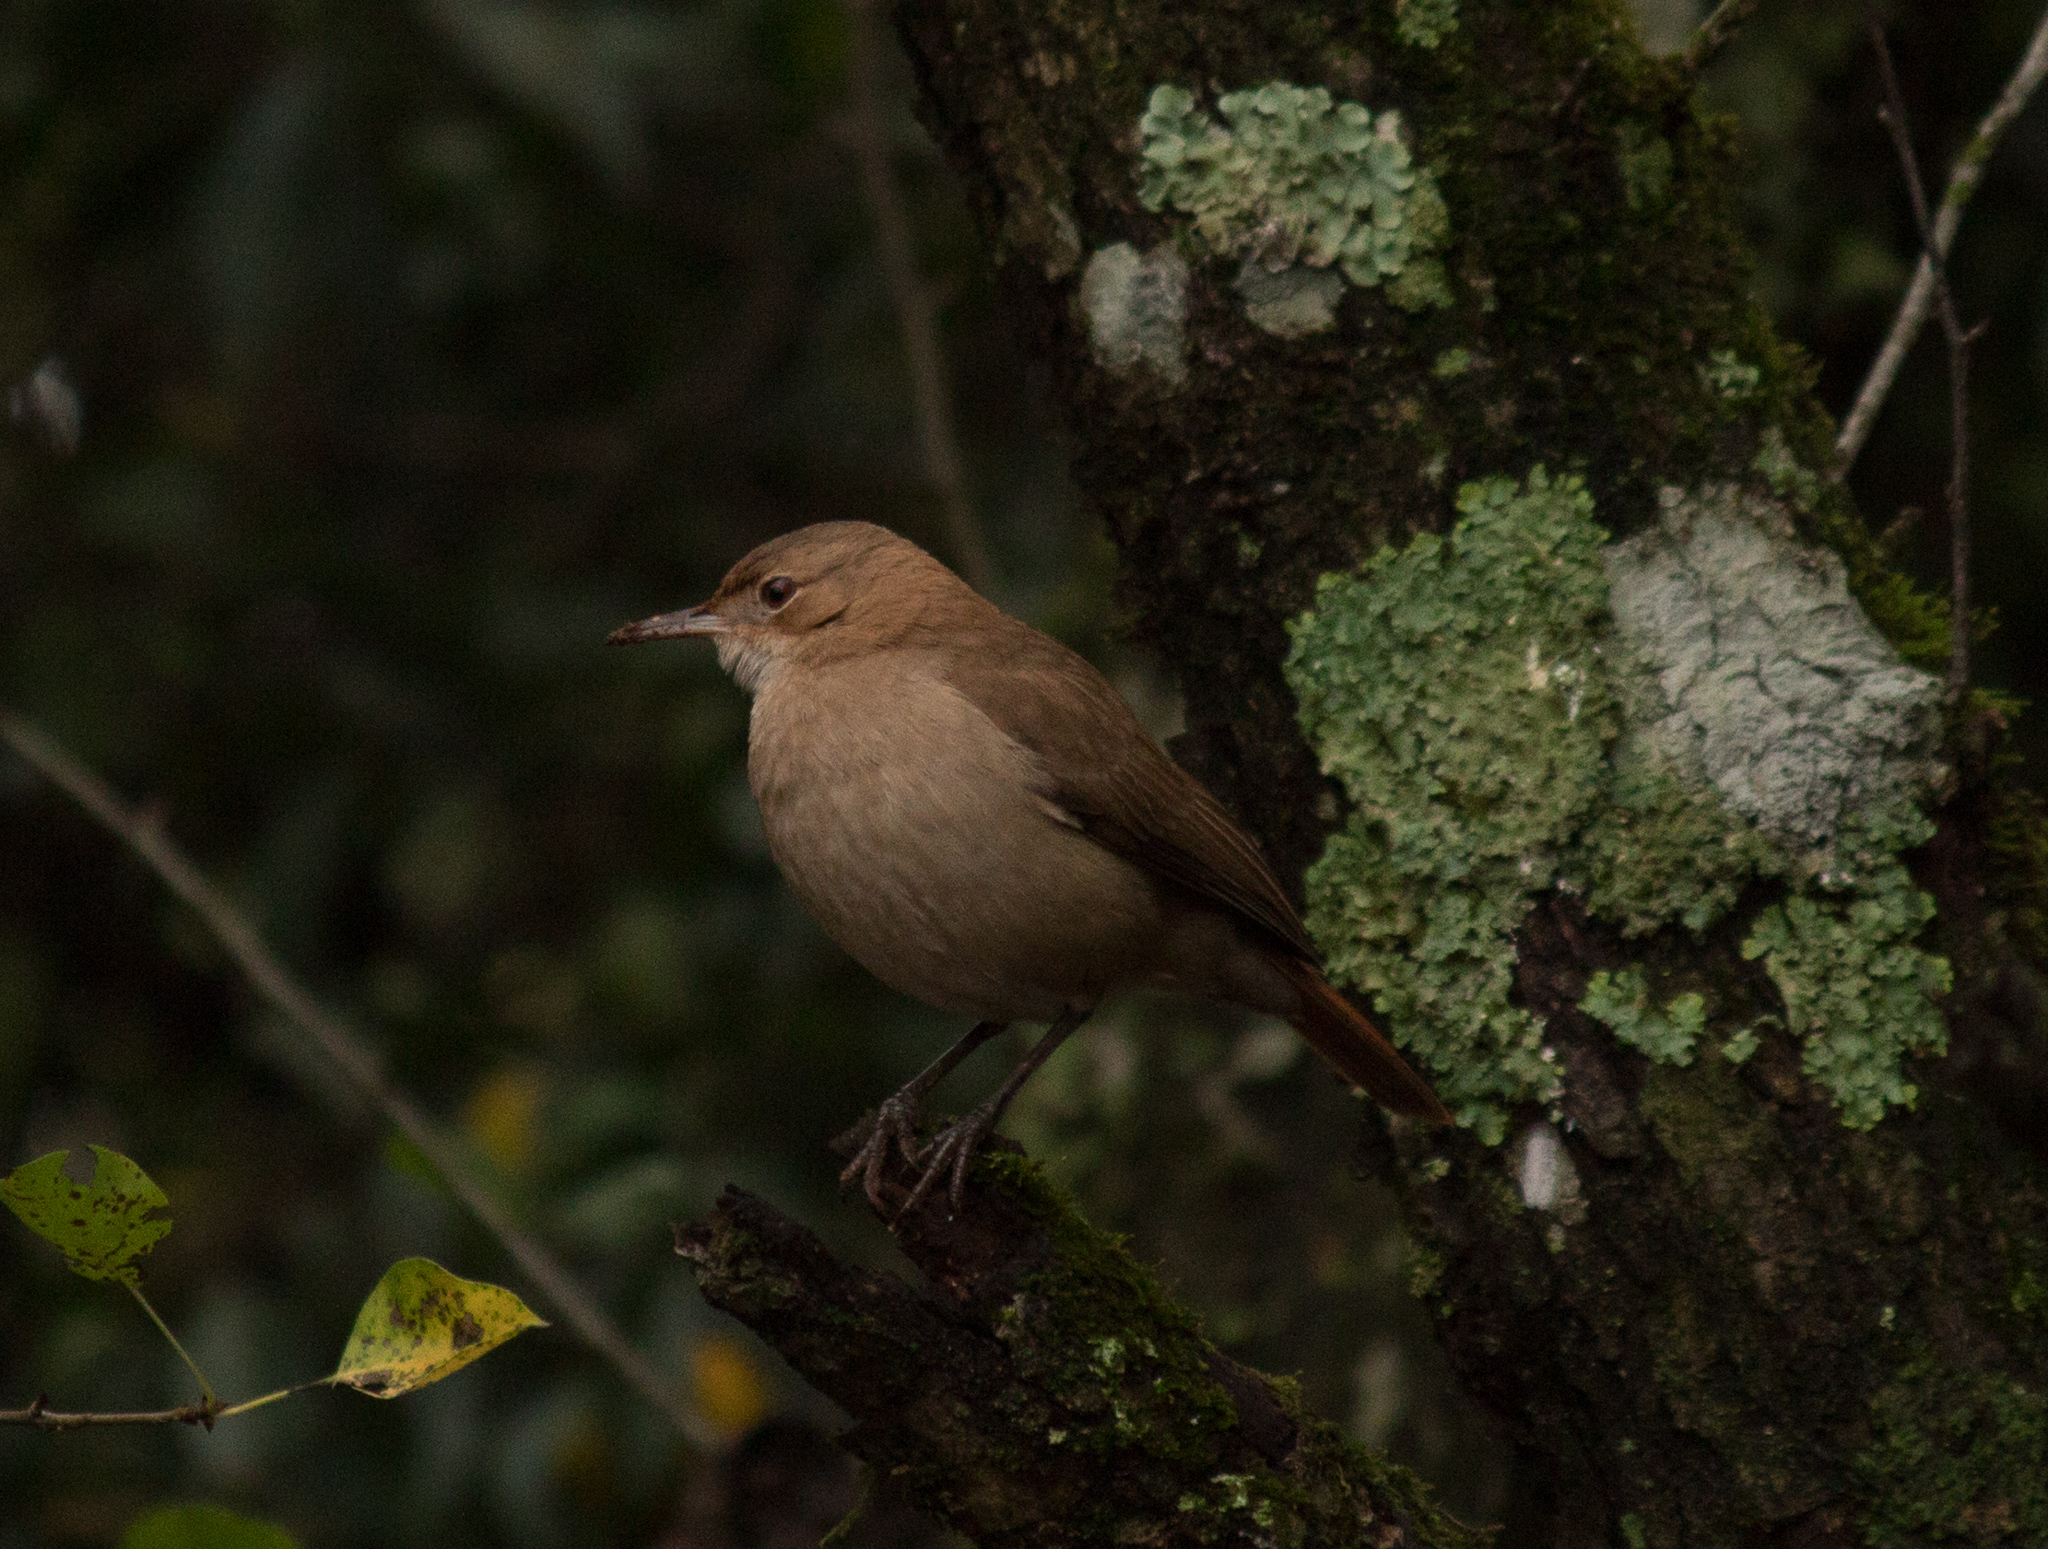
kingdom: Animalia
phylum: Chordata
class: Aves
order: Passeriformes
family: Furnariidae
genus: Furnarius
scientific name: Furnarius rufus
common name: Rufous hornero
